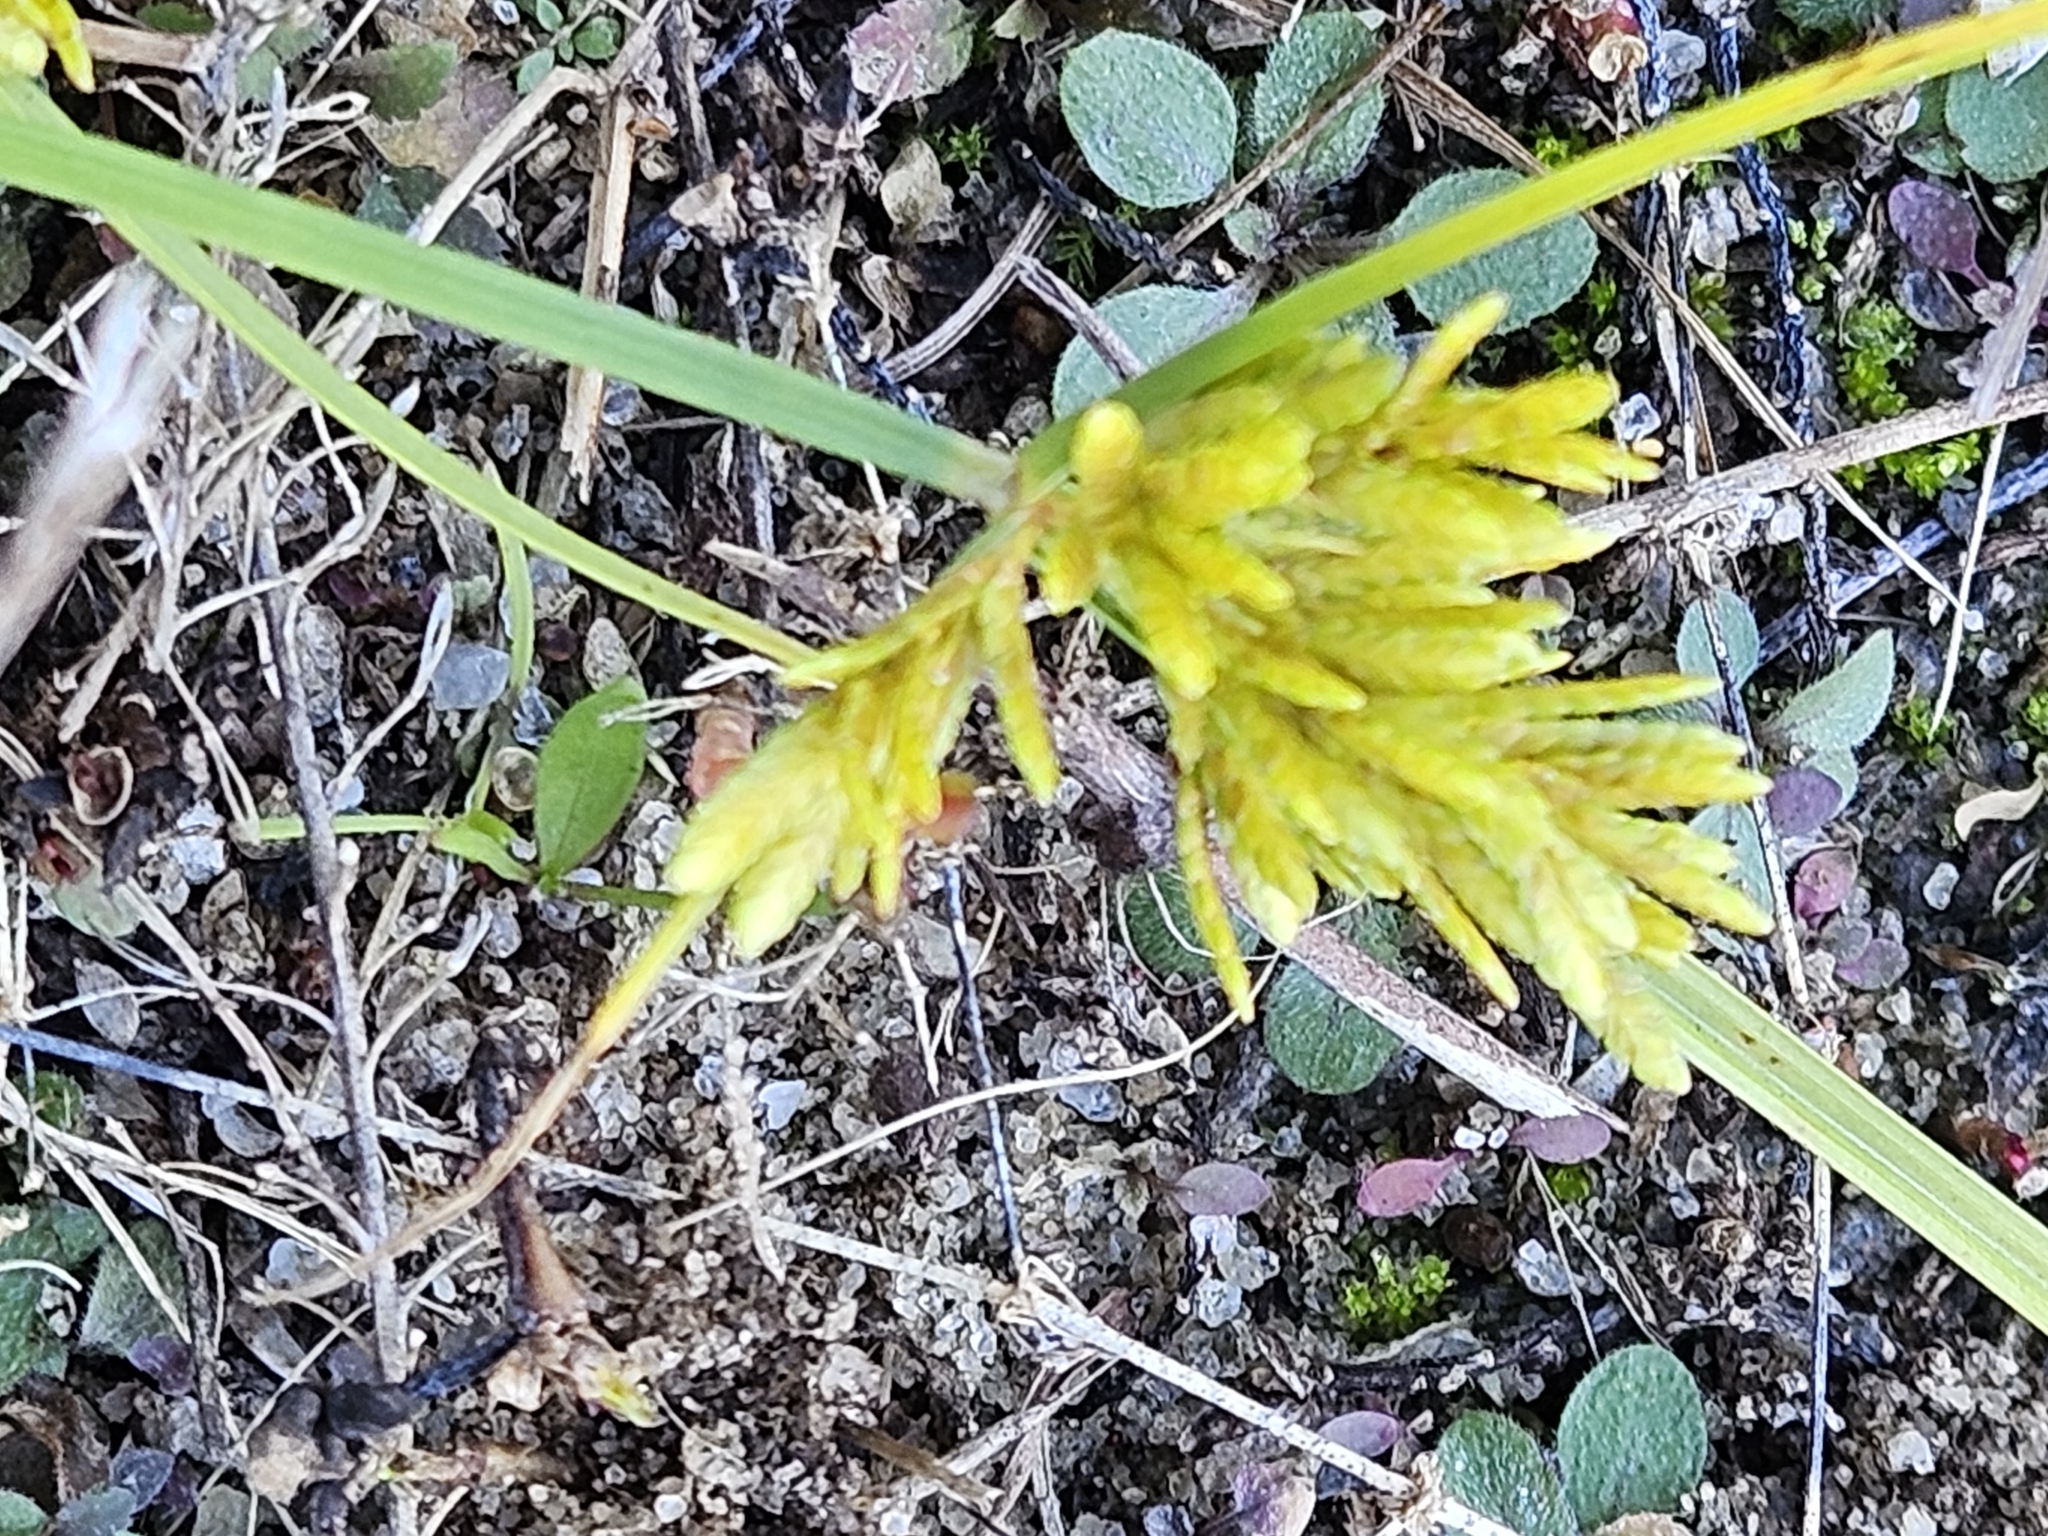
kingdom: Plantae
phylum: Tracheophyta
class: Liliopsida
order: Poales
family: Cyperaceae
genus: Cyperus
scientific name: Cyperus iria
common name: Ricefield flatsedge
